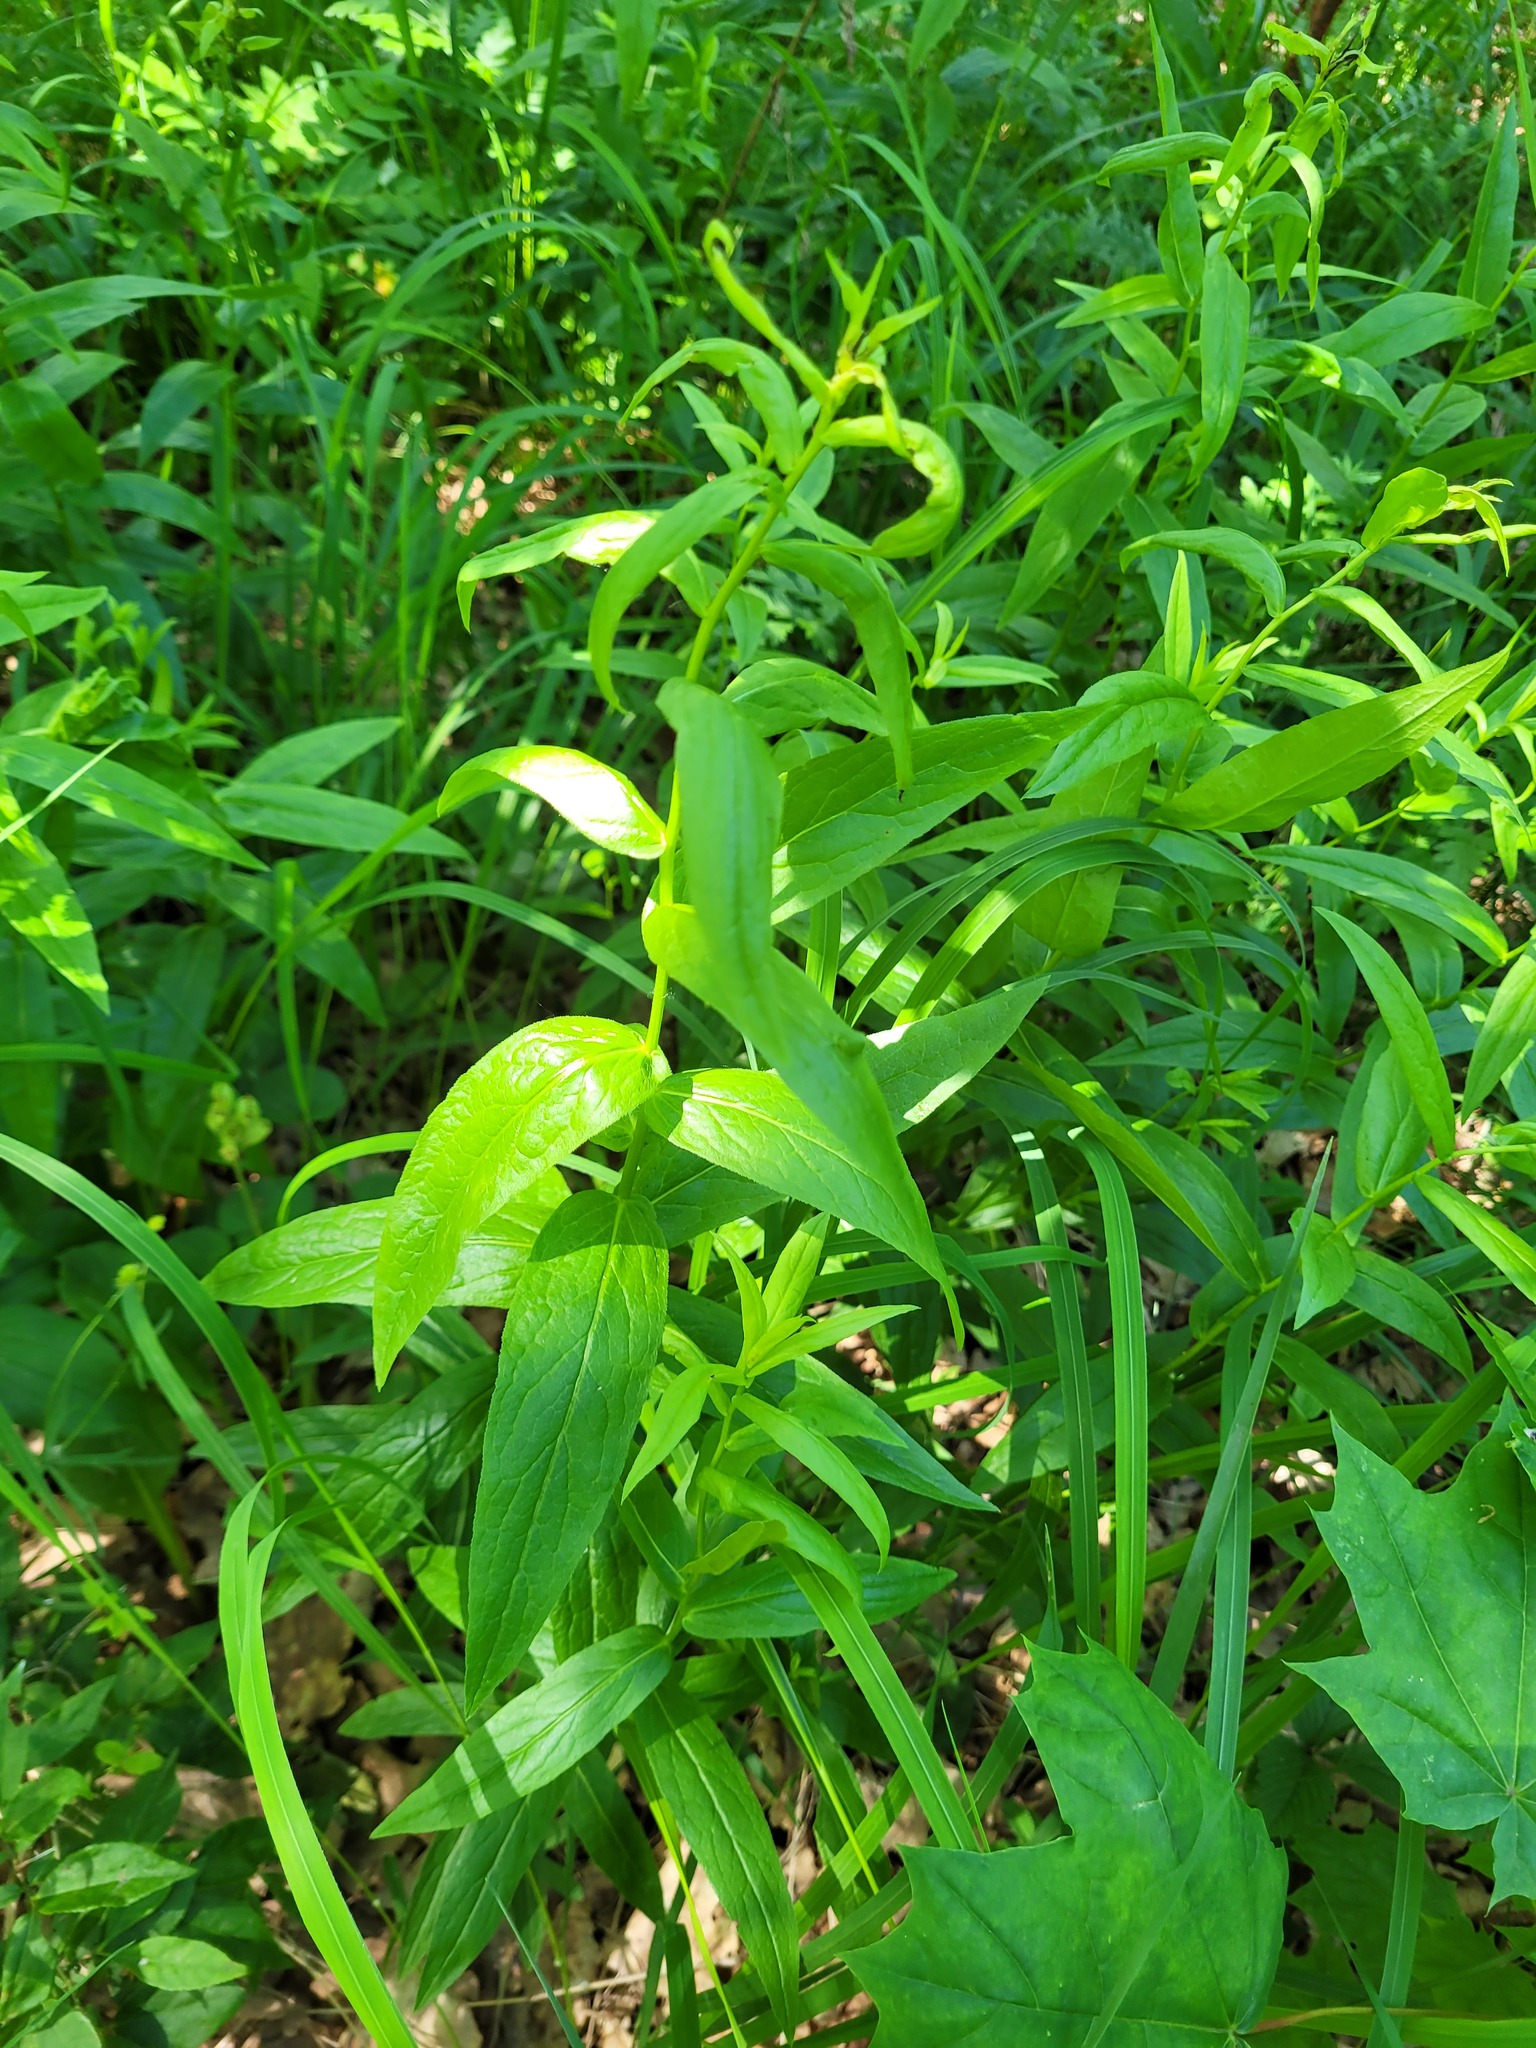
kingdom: Plantae
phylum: Tracheophyta
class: Magnoliopsida
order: Asterales
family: Asteraceae
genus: Pentanema
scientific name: Pentanema salicinum
